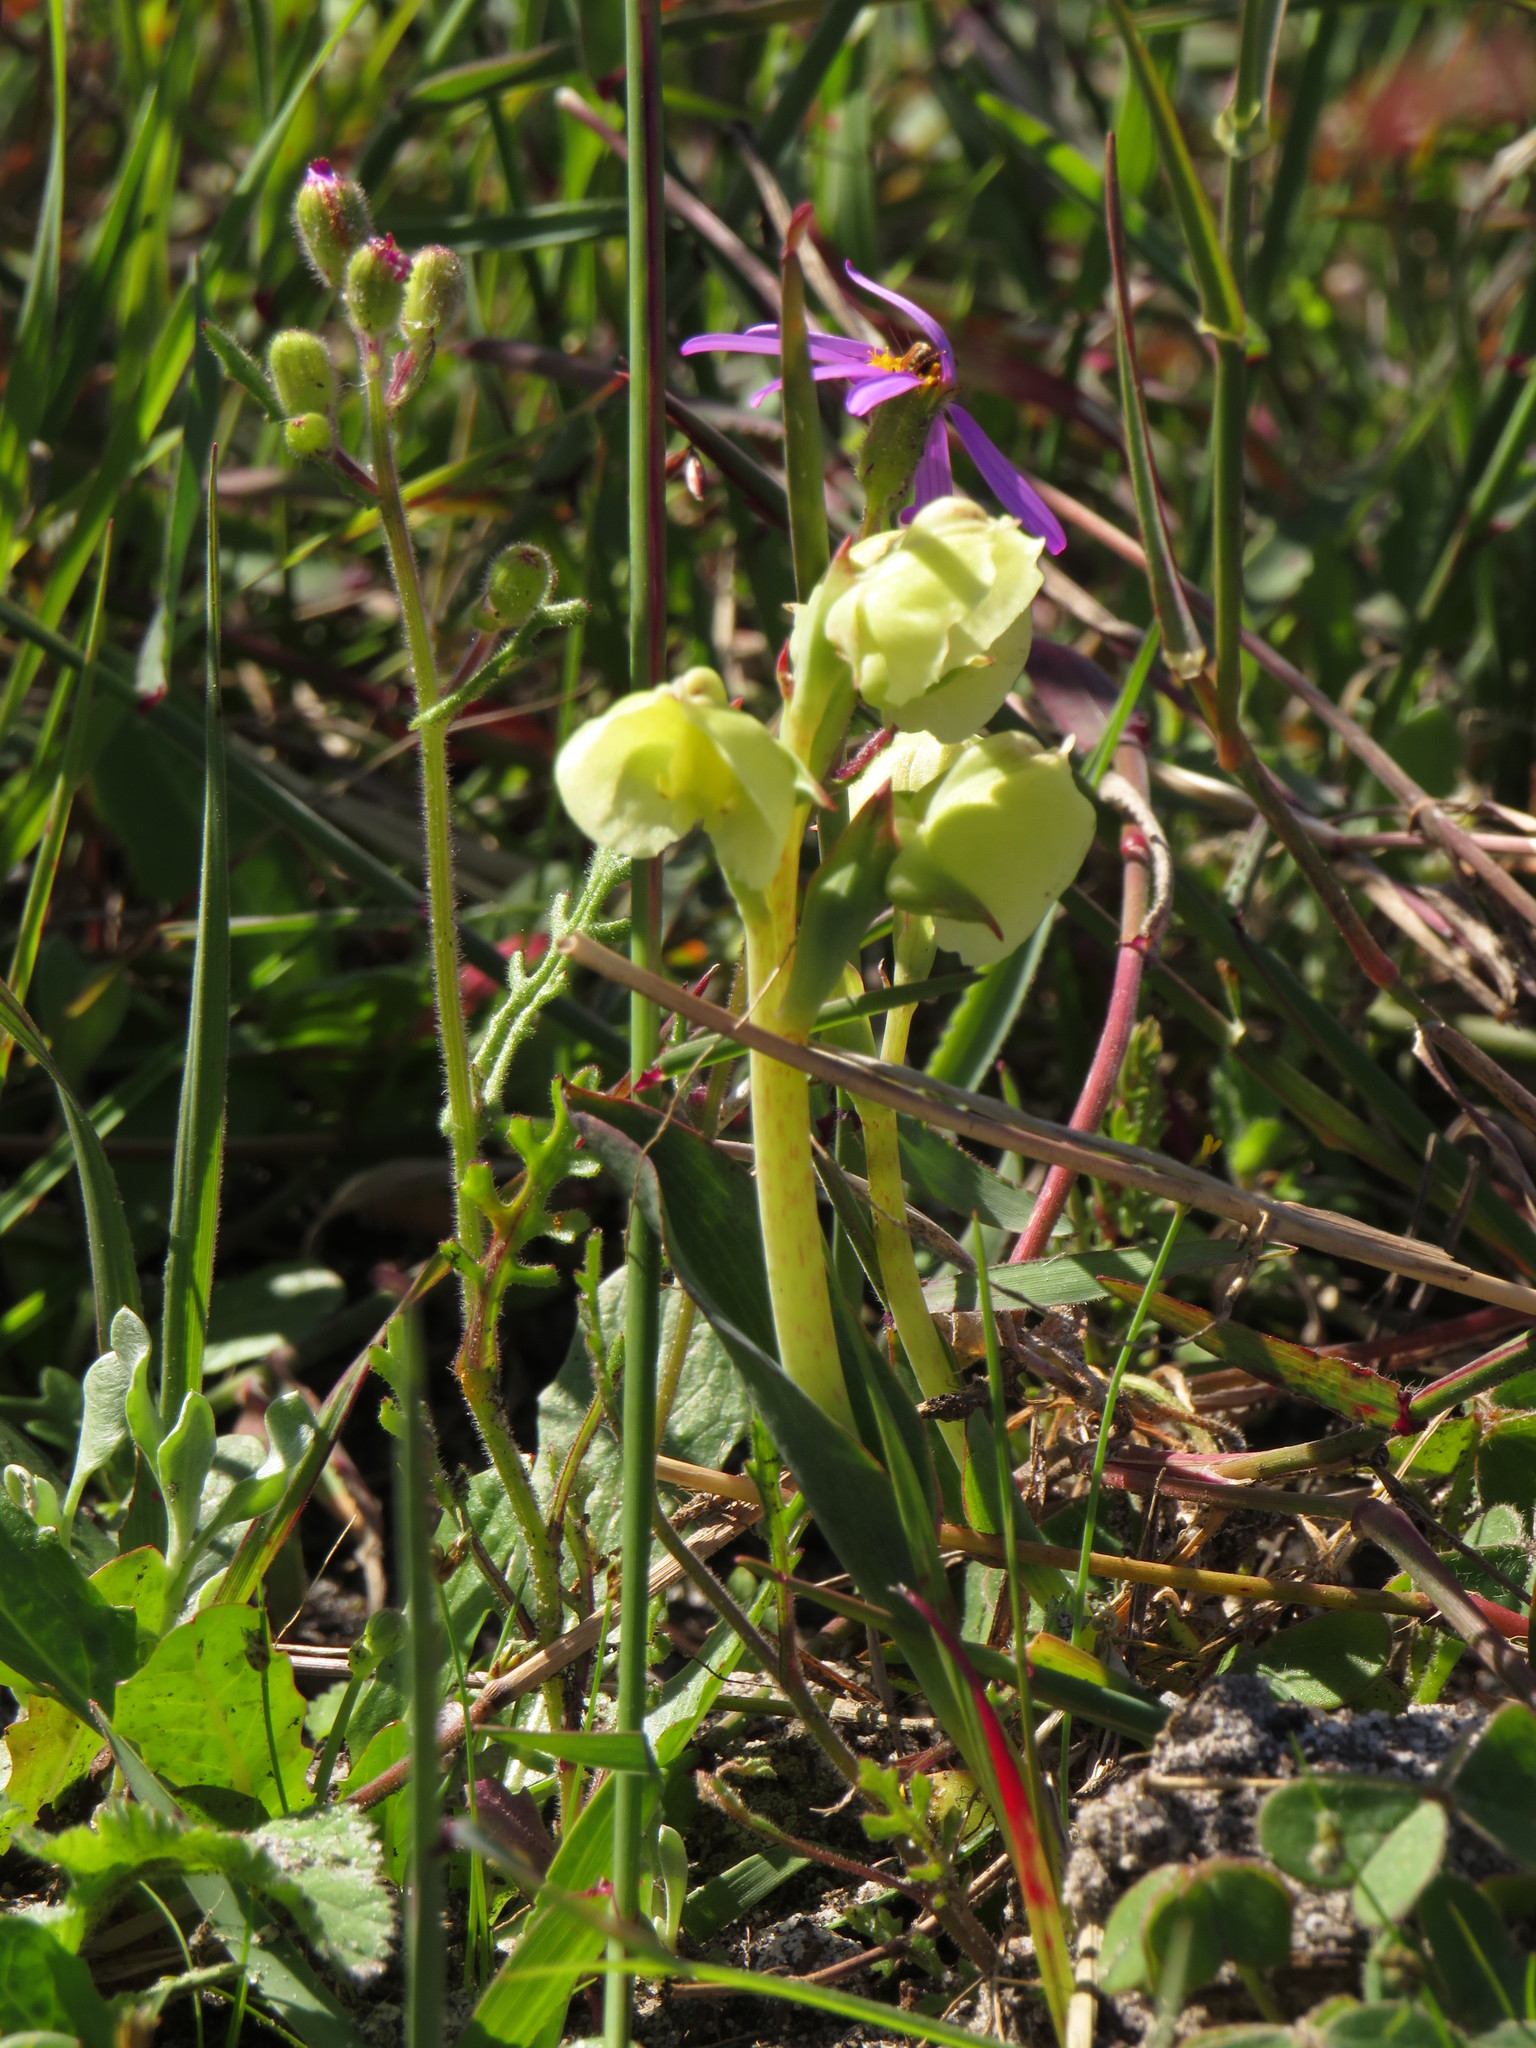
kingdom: Plantae
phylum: Tracheophyta
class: Liliopsida
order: Asparagales
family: Orchidaceae
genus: Pterygodium
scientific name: Pterygodium catholicum
